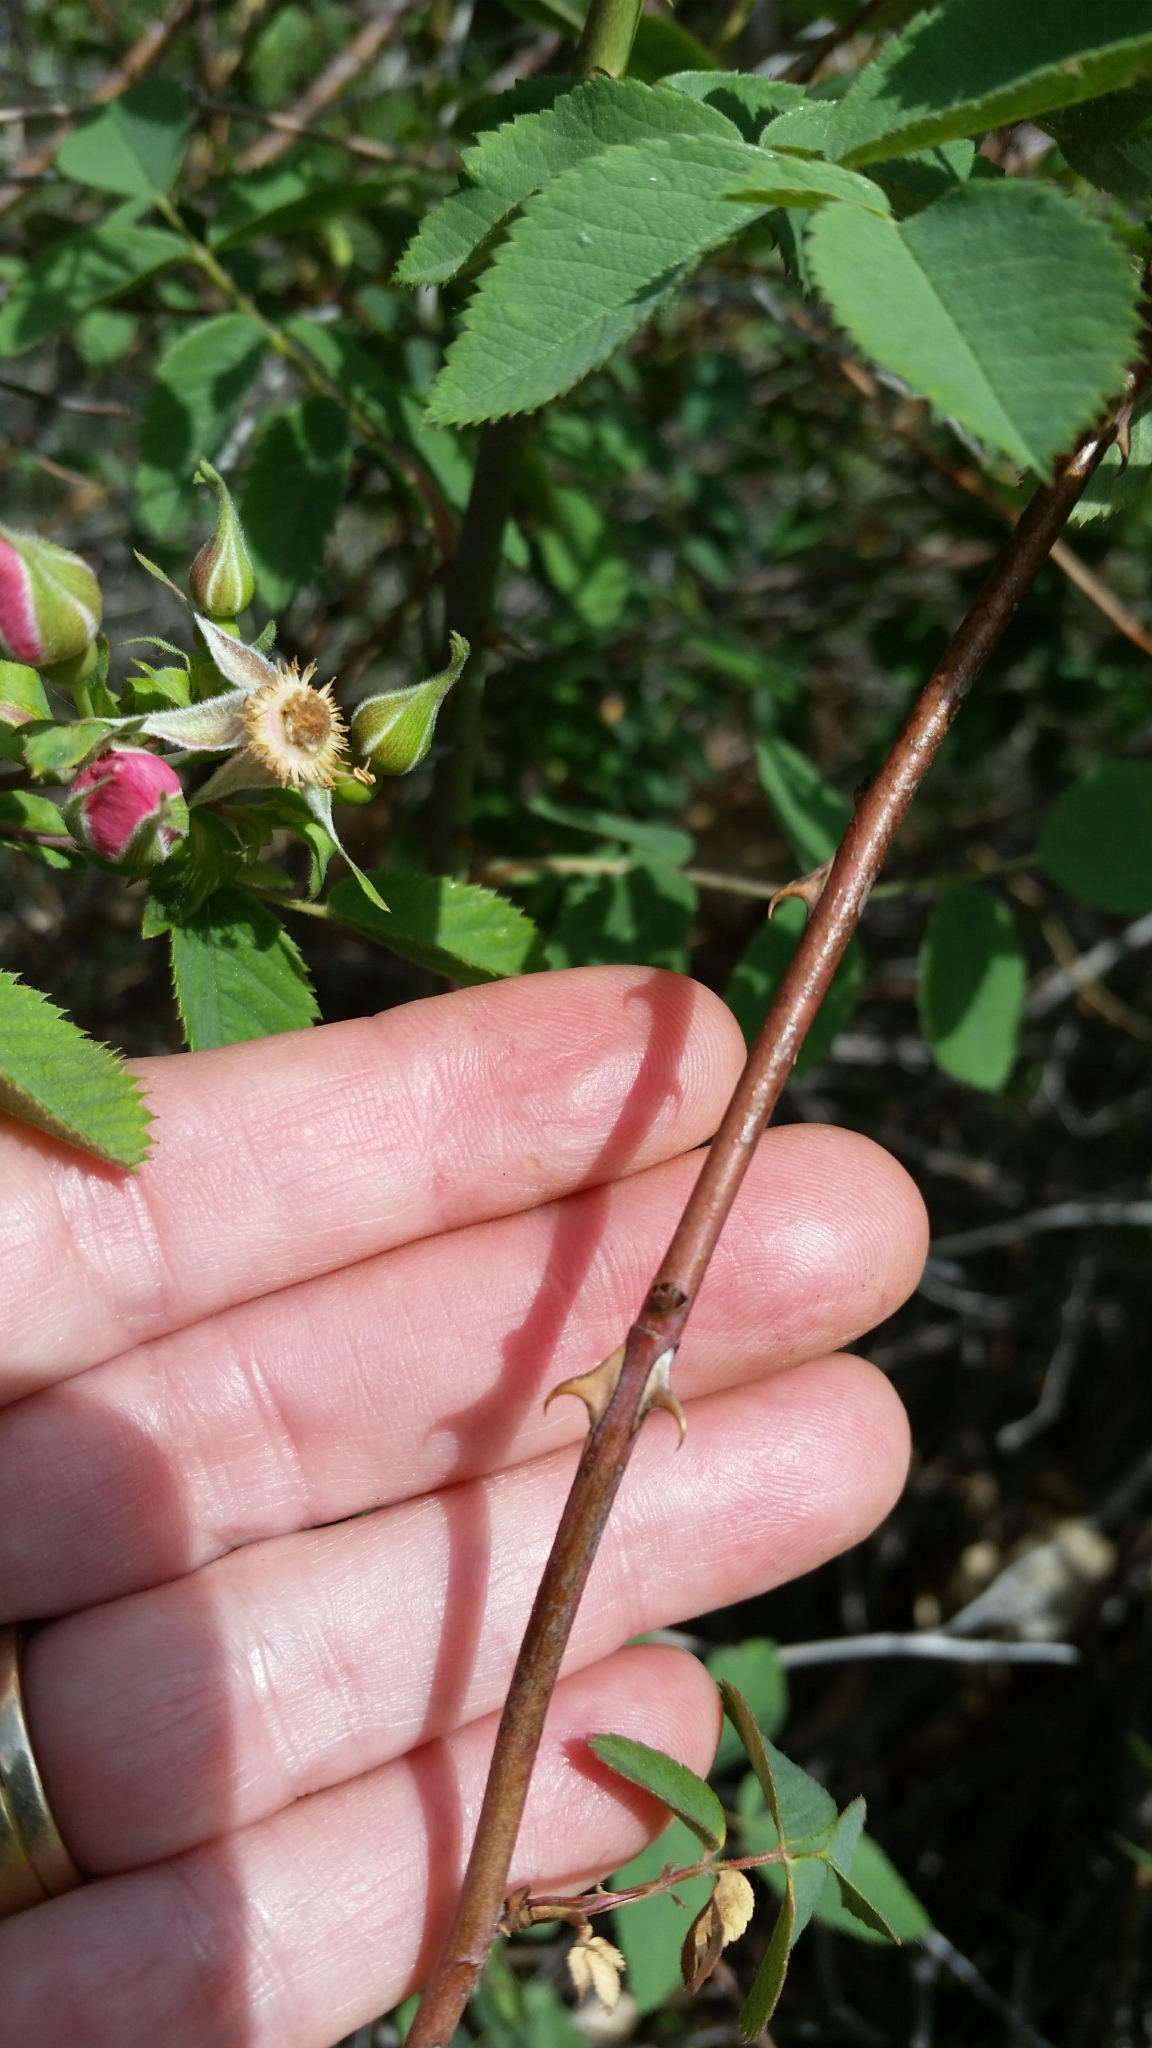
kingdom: Plantae
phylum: Tracheophyta
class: Magnoliopsida
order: Rosales
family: Rosaceae
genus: Rosa
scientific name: Rosa californica
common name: California rose
